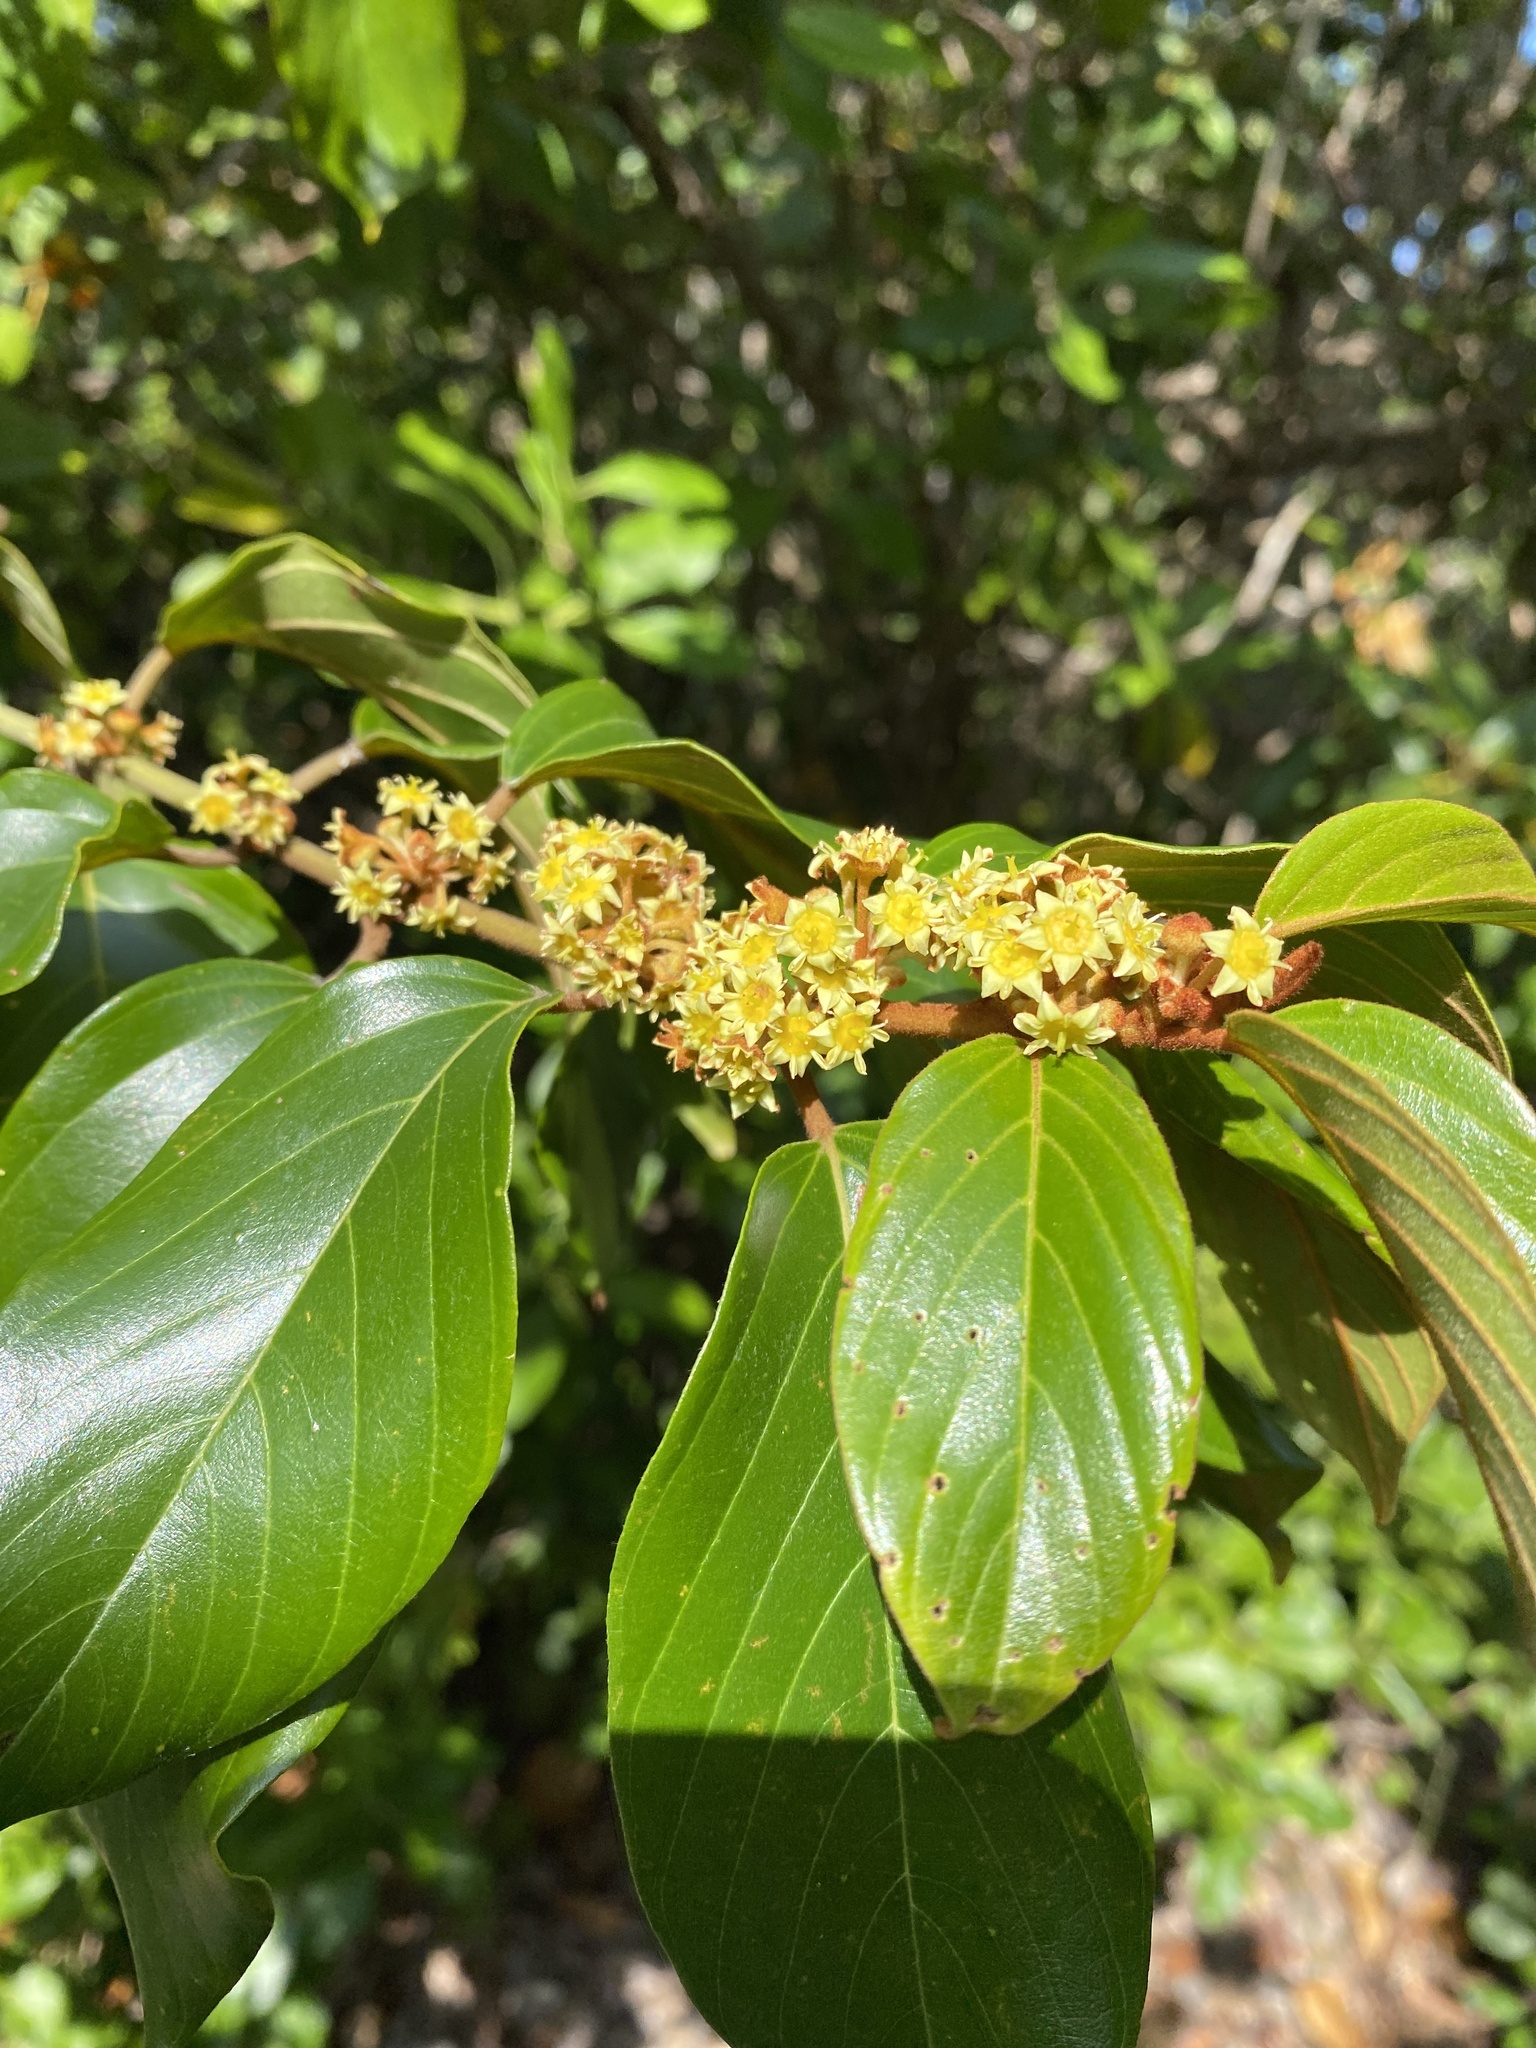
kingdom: Plantae
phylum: Tracheophyta
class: Magnoliopsida
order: Rosales
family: Rhamnaceae
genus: Colubrina
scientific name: Colubrina arborescens
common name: Wild coffee
